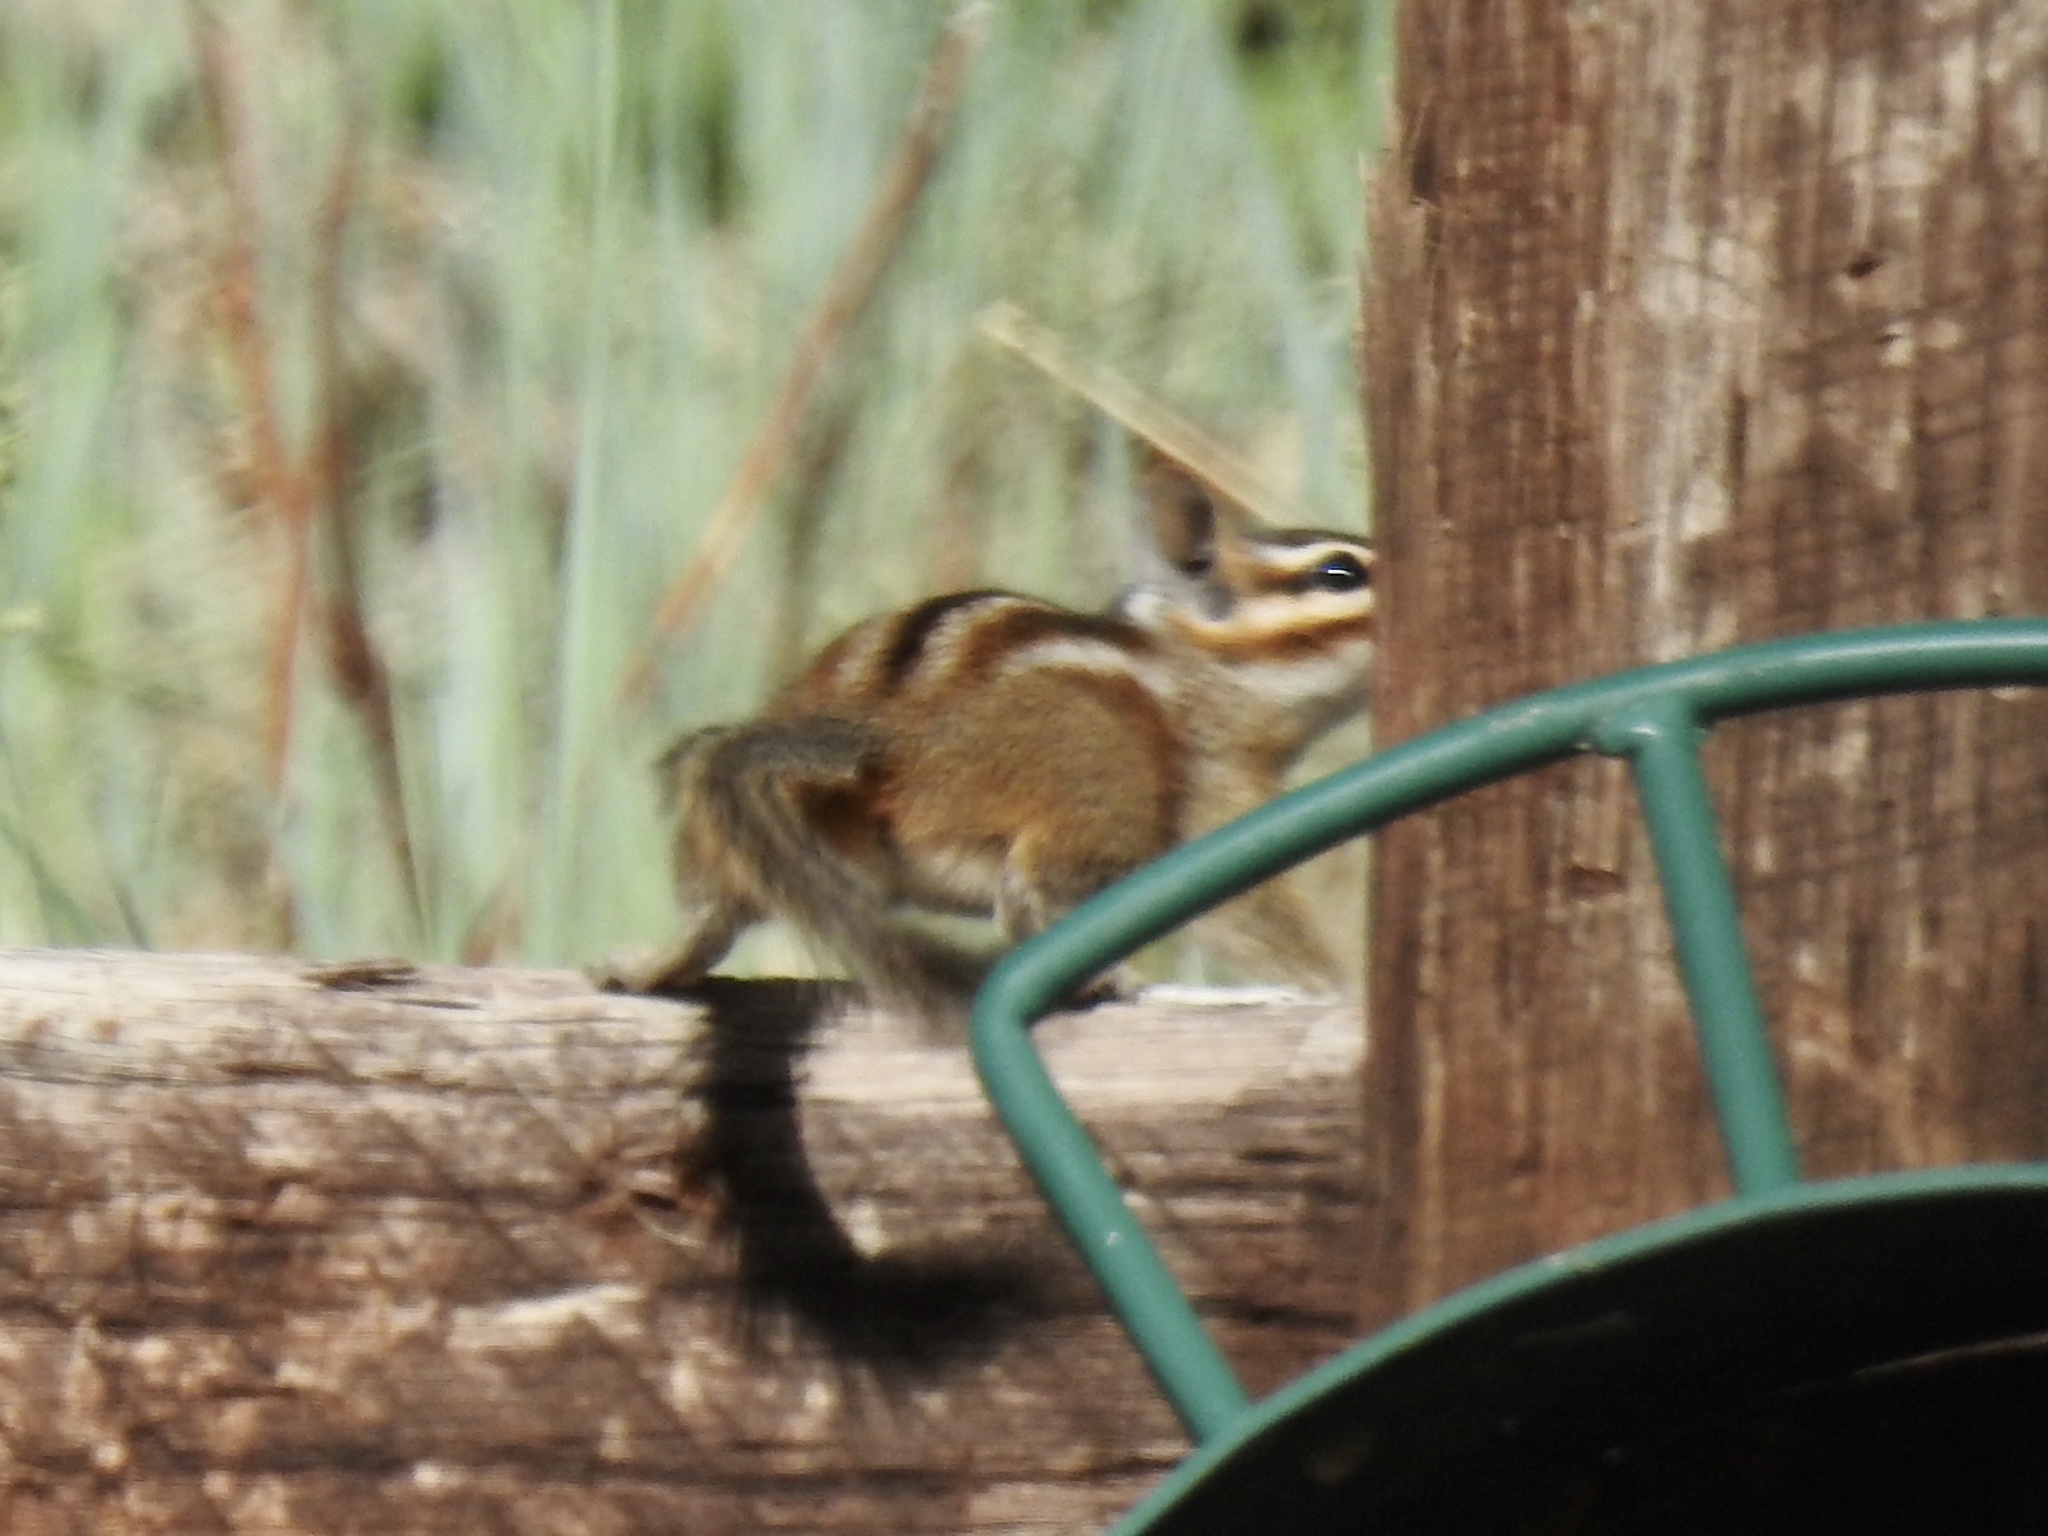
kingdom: Animalia
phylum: Chordata
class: Mammalia
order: Rodentia
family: Sciuridae
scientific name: Sciuridae
